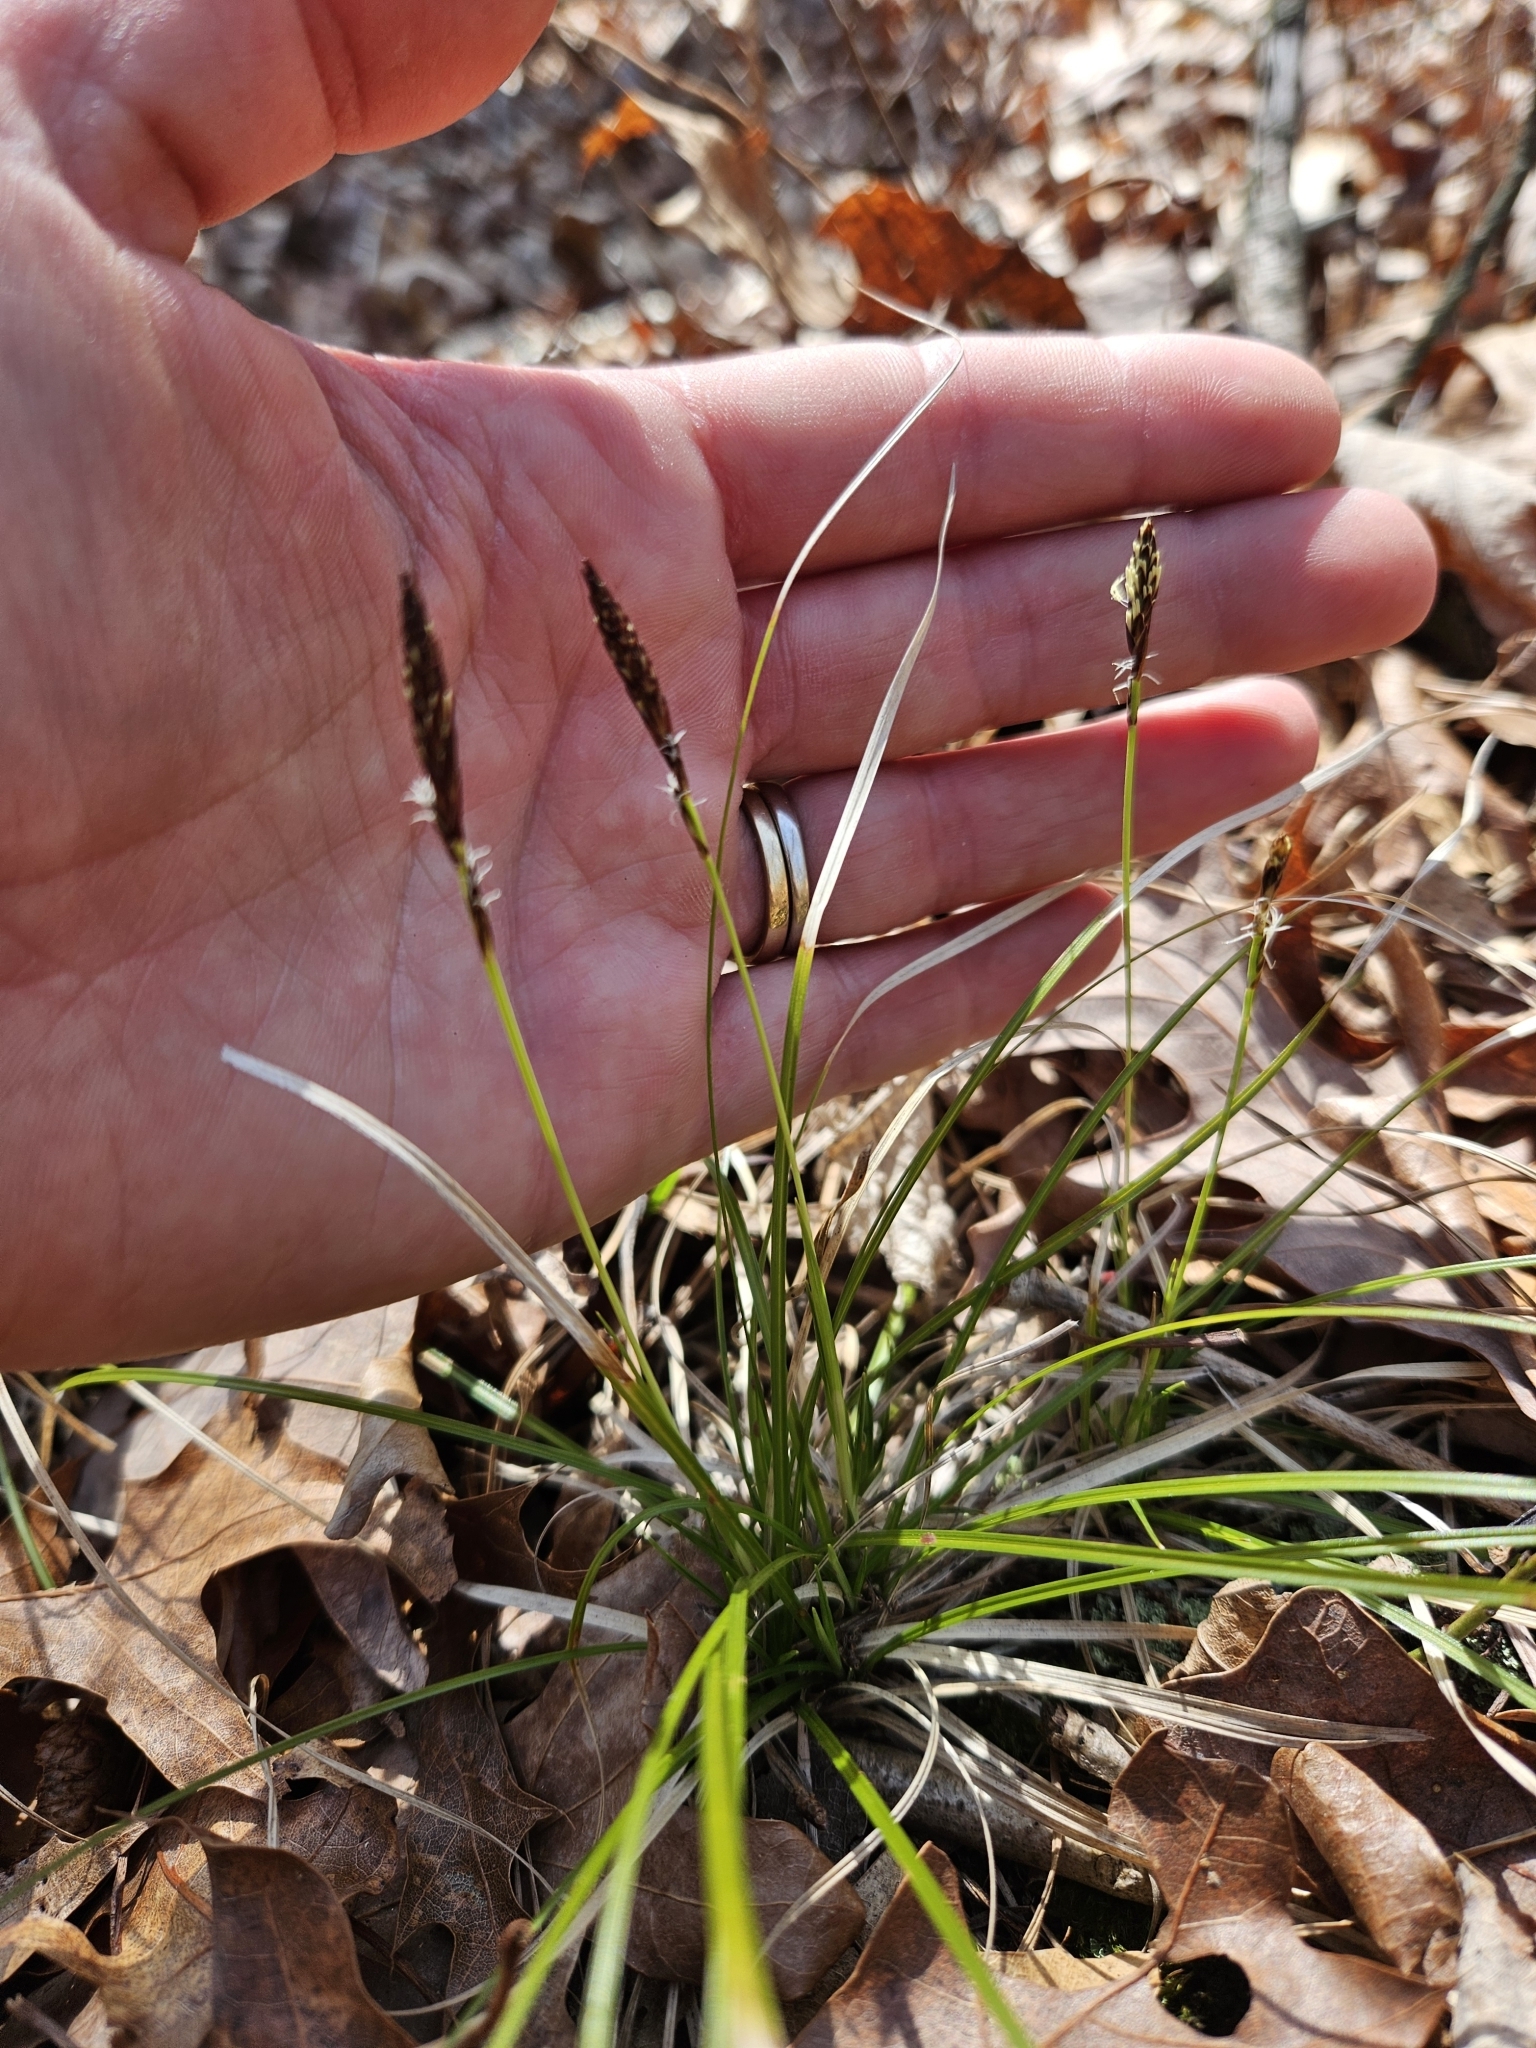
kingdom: Plantae
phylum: Tracheophyta
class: Liliopsida
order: Poales
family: Cyperaceae
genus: Carex
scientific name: Carex pensylvanica
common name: Common oak sedge
